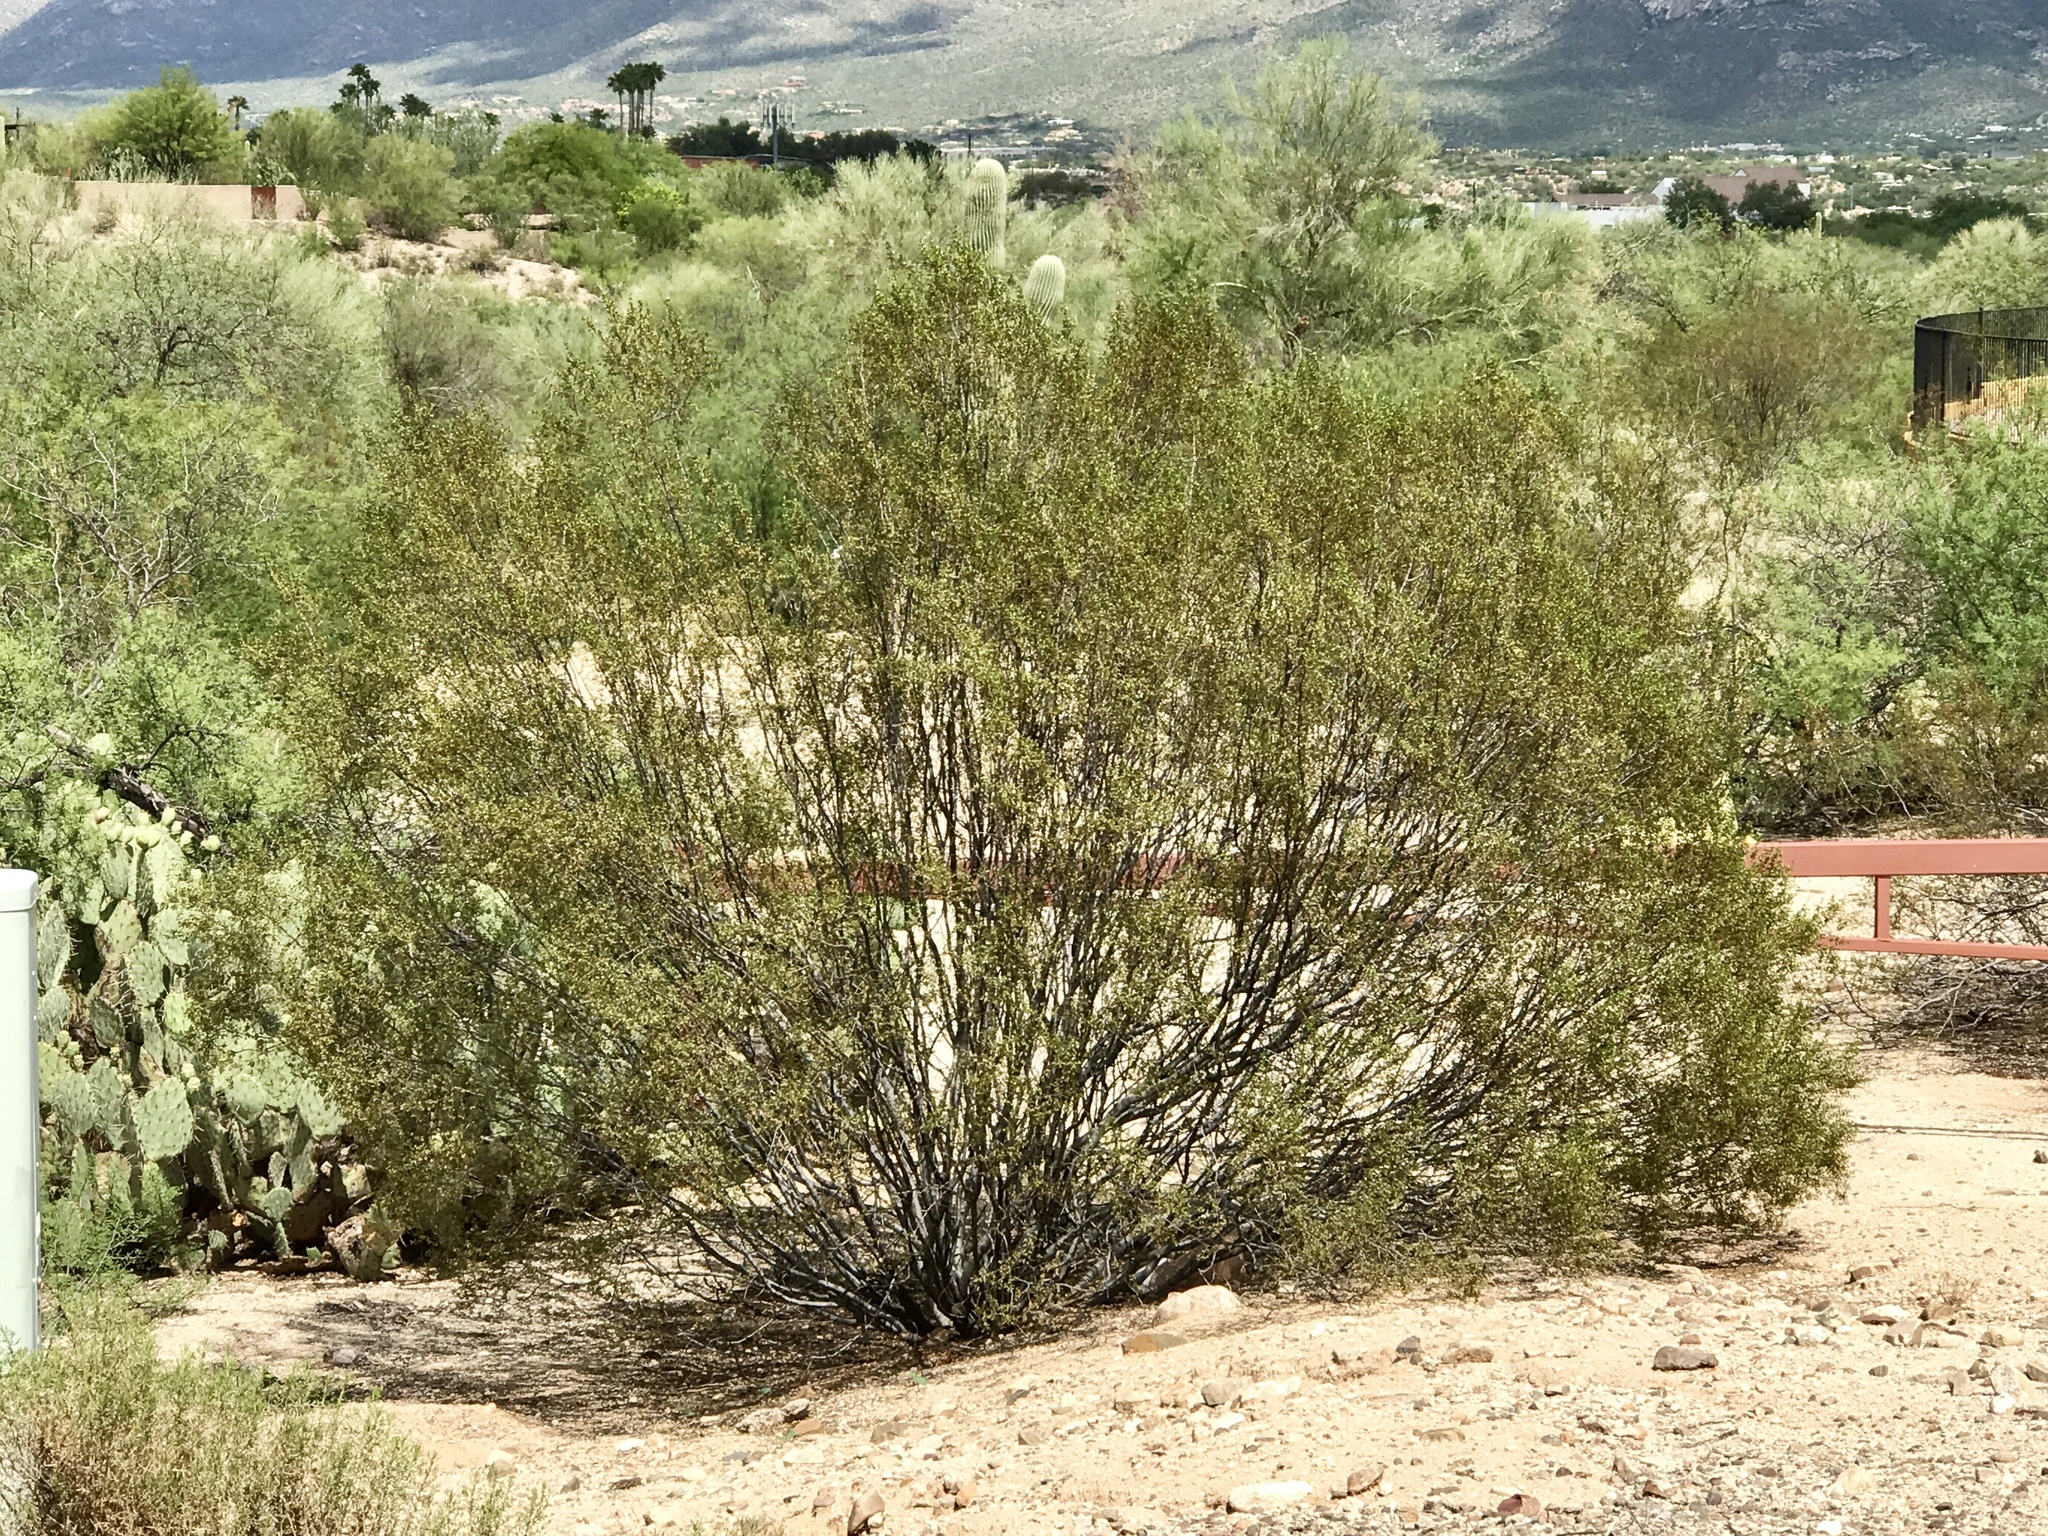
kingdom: Plantae
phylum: Tracheophyta
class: Magnoliopsida
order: Zygophyllales
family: Zygophyllaceae
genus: Larrea
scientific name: Larrea tridentata
